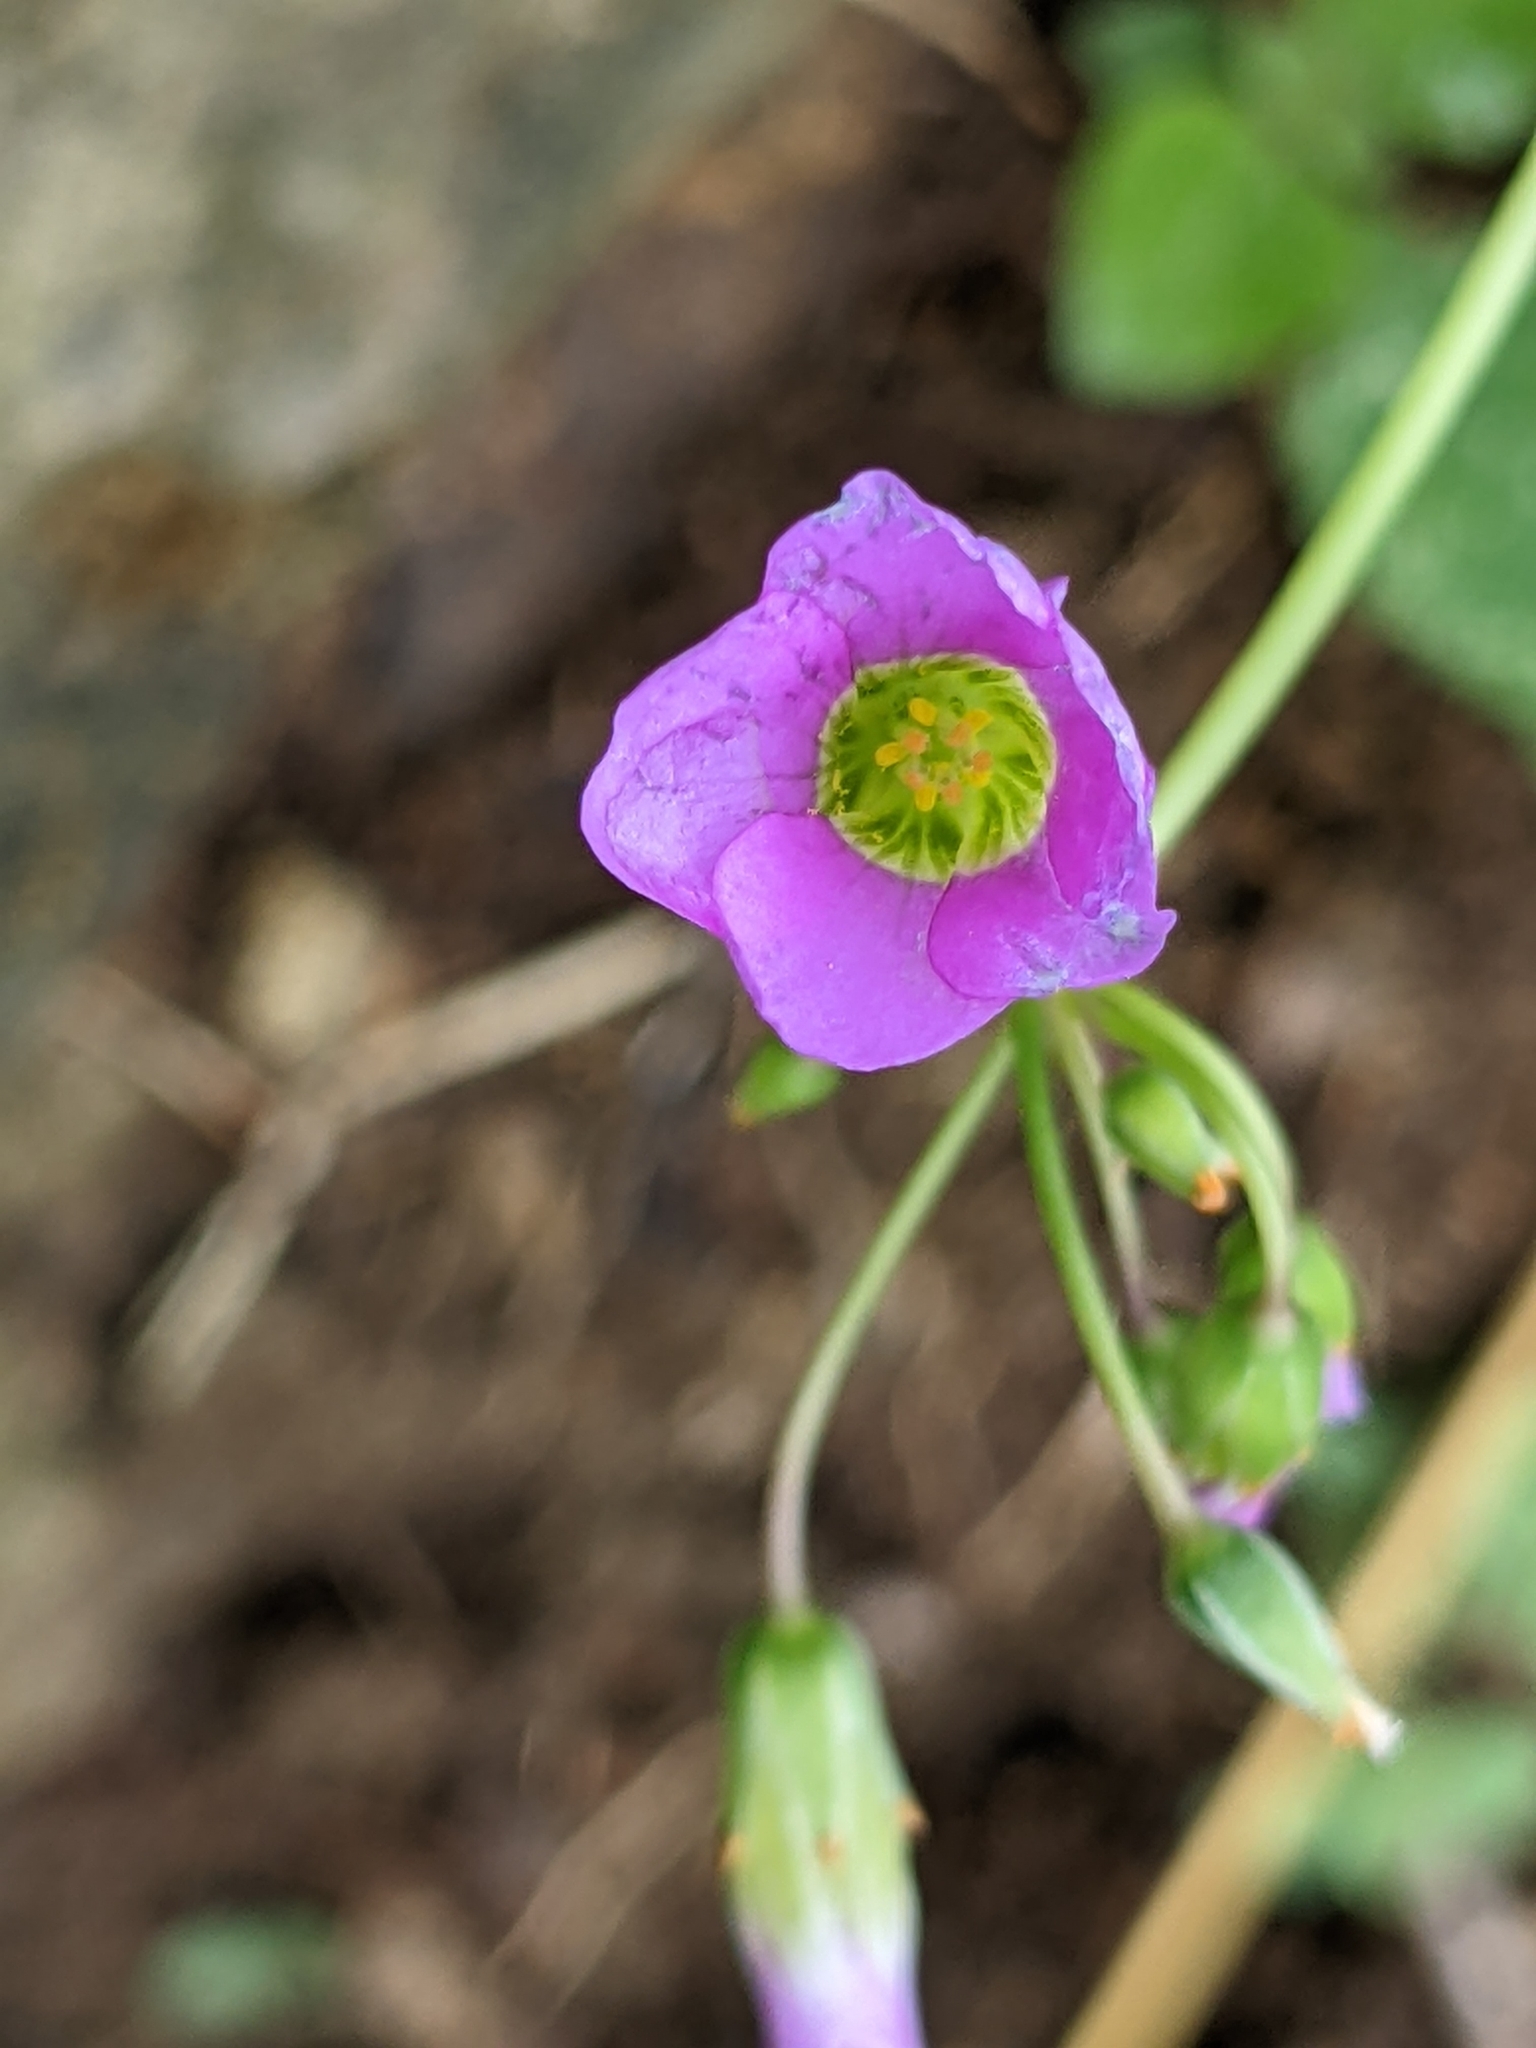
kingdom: Plantae
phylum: Tracheophyta
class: Magnoliopsida
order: Oxalidales
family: Oxalidaceae
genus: Oxalis
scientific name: Oxalis latifolia
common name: Garden pink-sorrel
